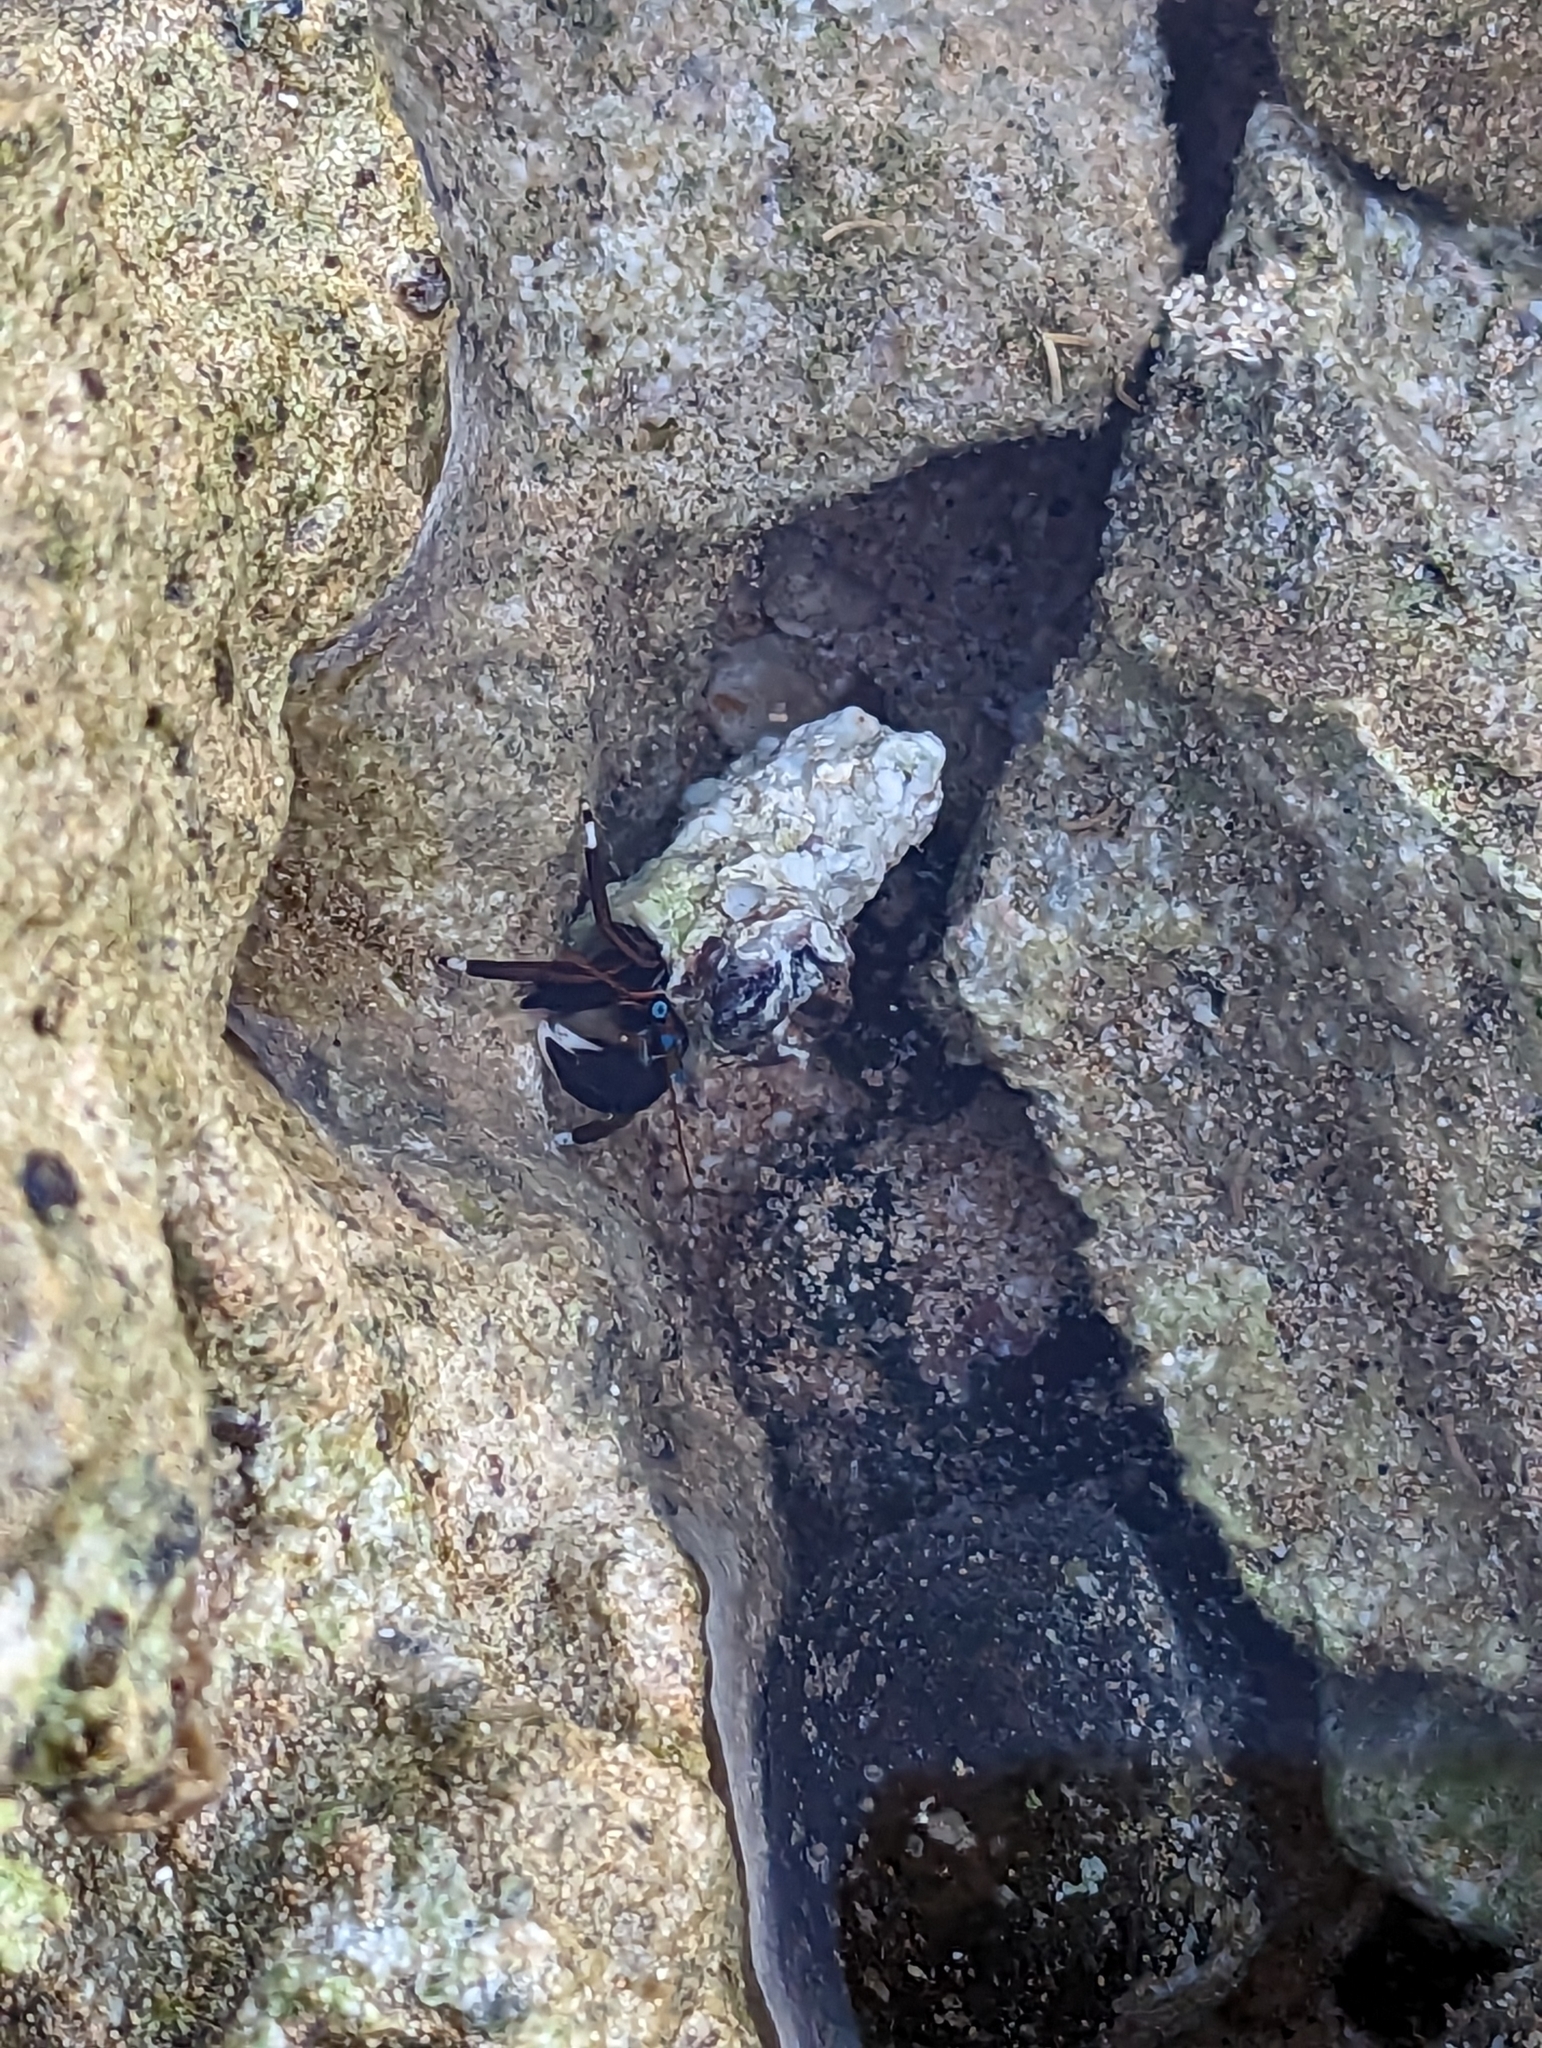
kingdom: Animalia
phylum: Arthropoda
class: Malacostraca
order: Decapoda
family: Diogenidae
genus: Calcinus
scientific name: Calcinus laevimanus
